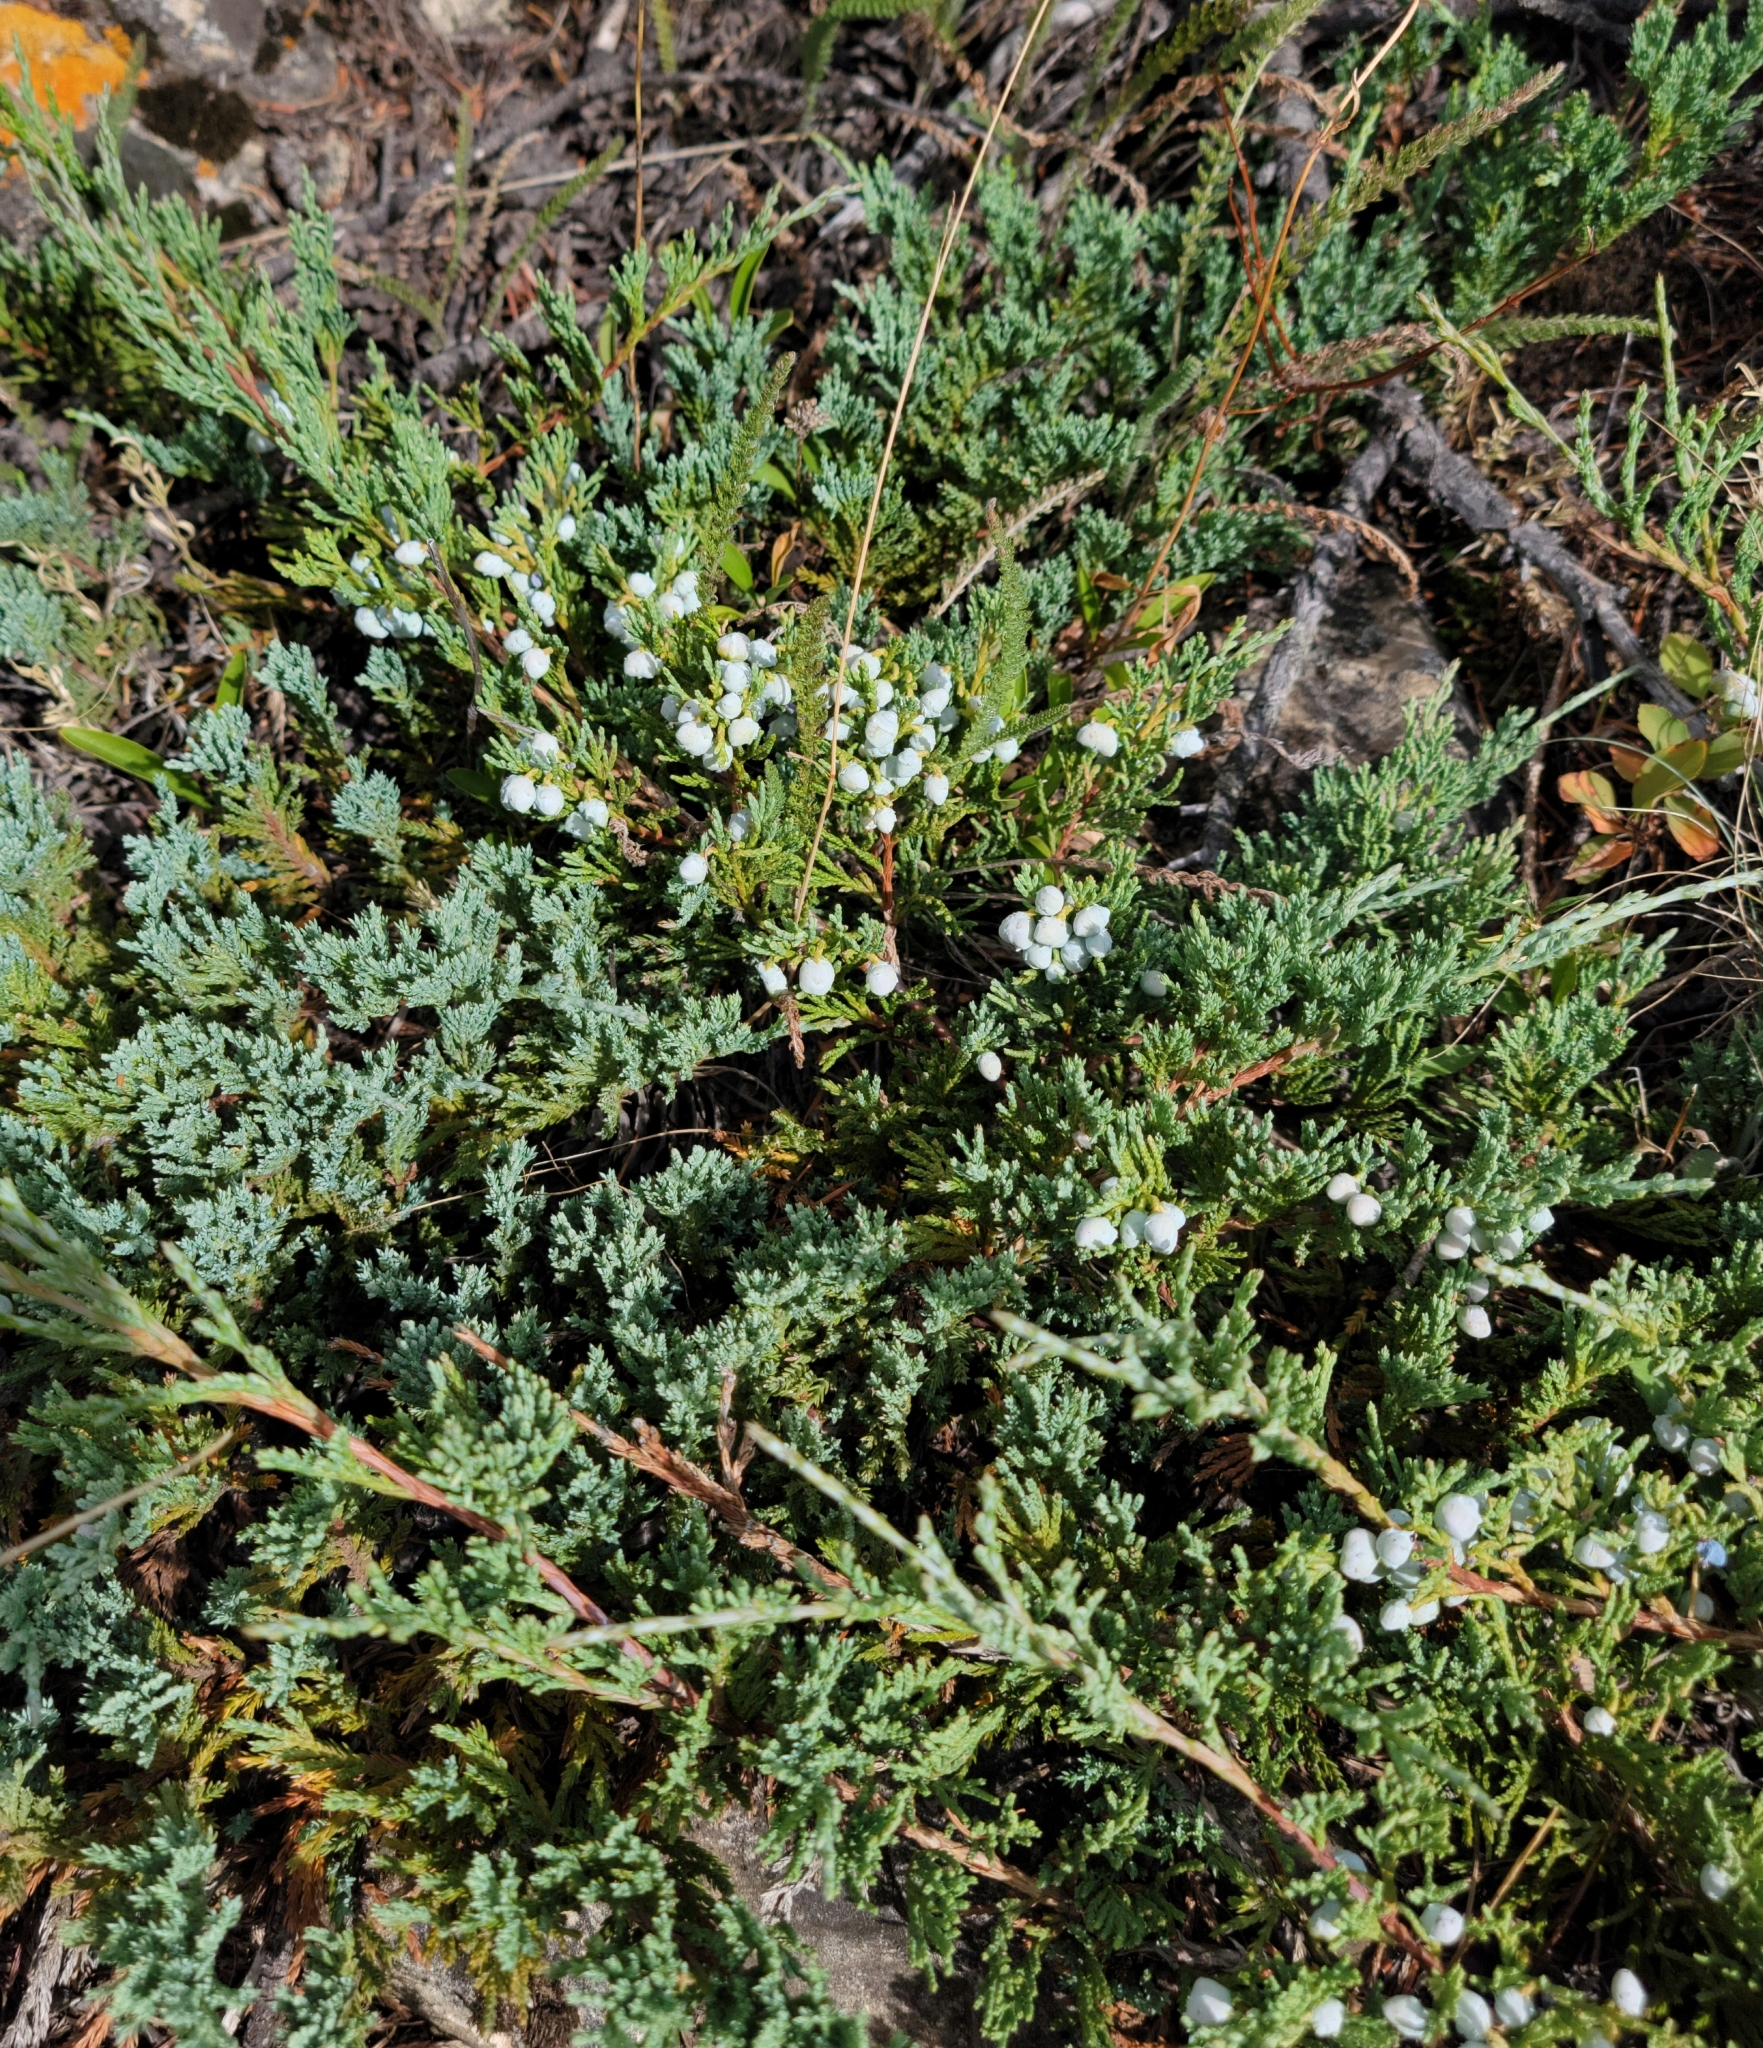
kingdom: Plantae
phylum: Tracheophyta
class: Pinopsida
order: Pinales
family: Cupressaceae
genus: Juniperus
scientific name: Juniperus horizontalis
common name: Creeping juniper
